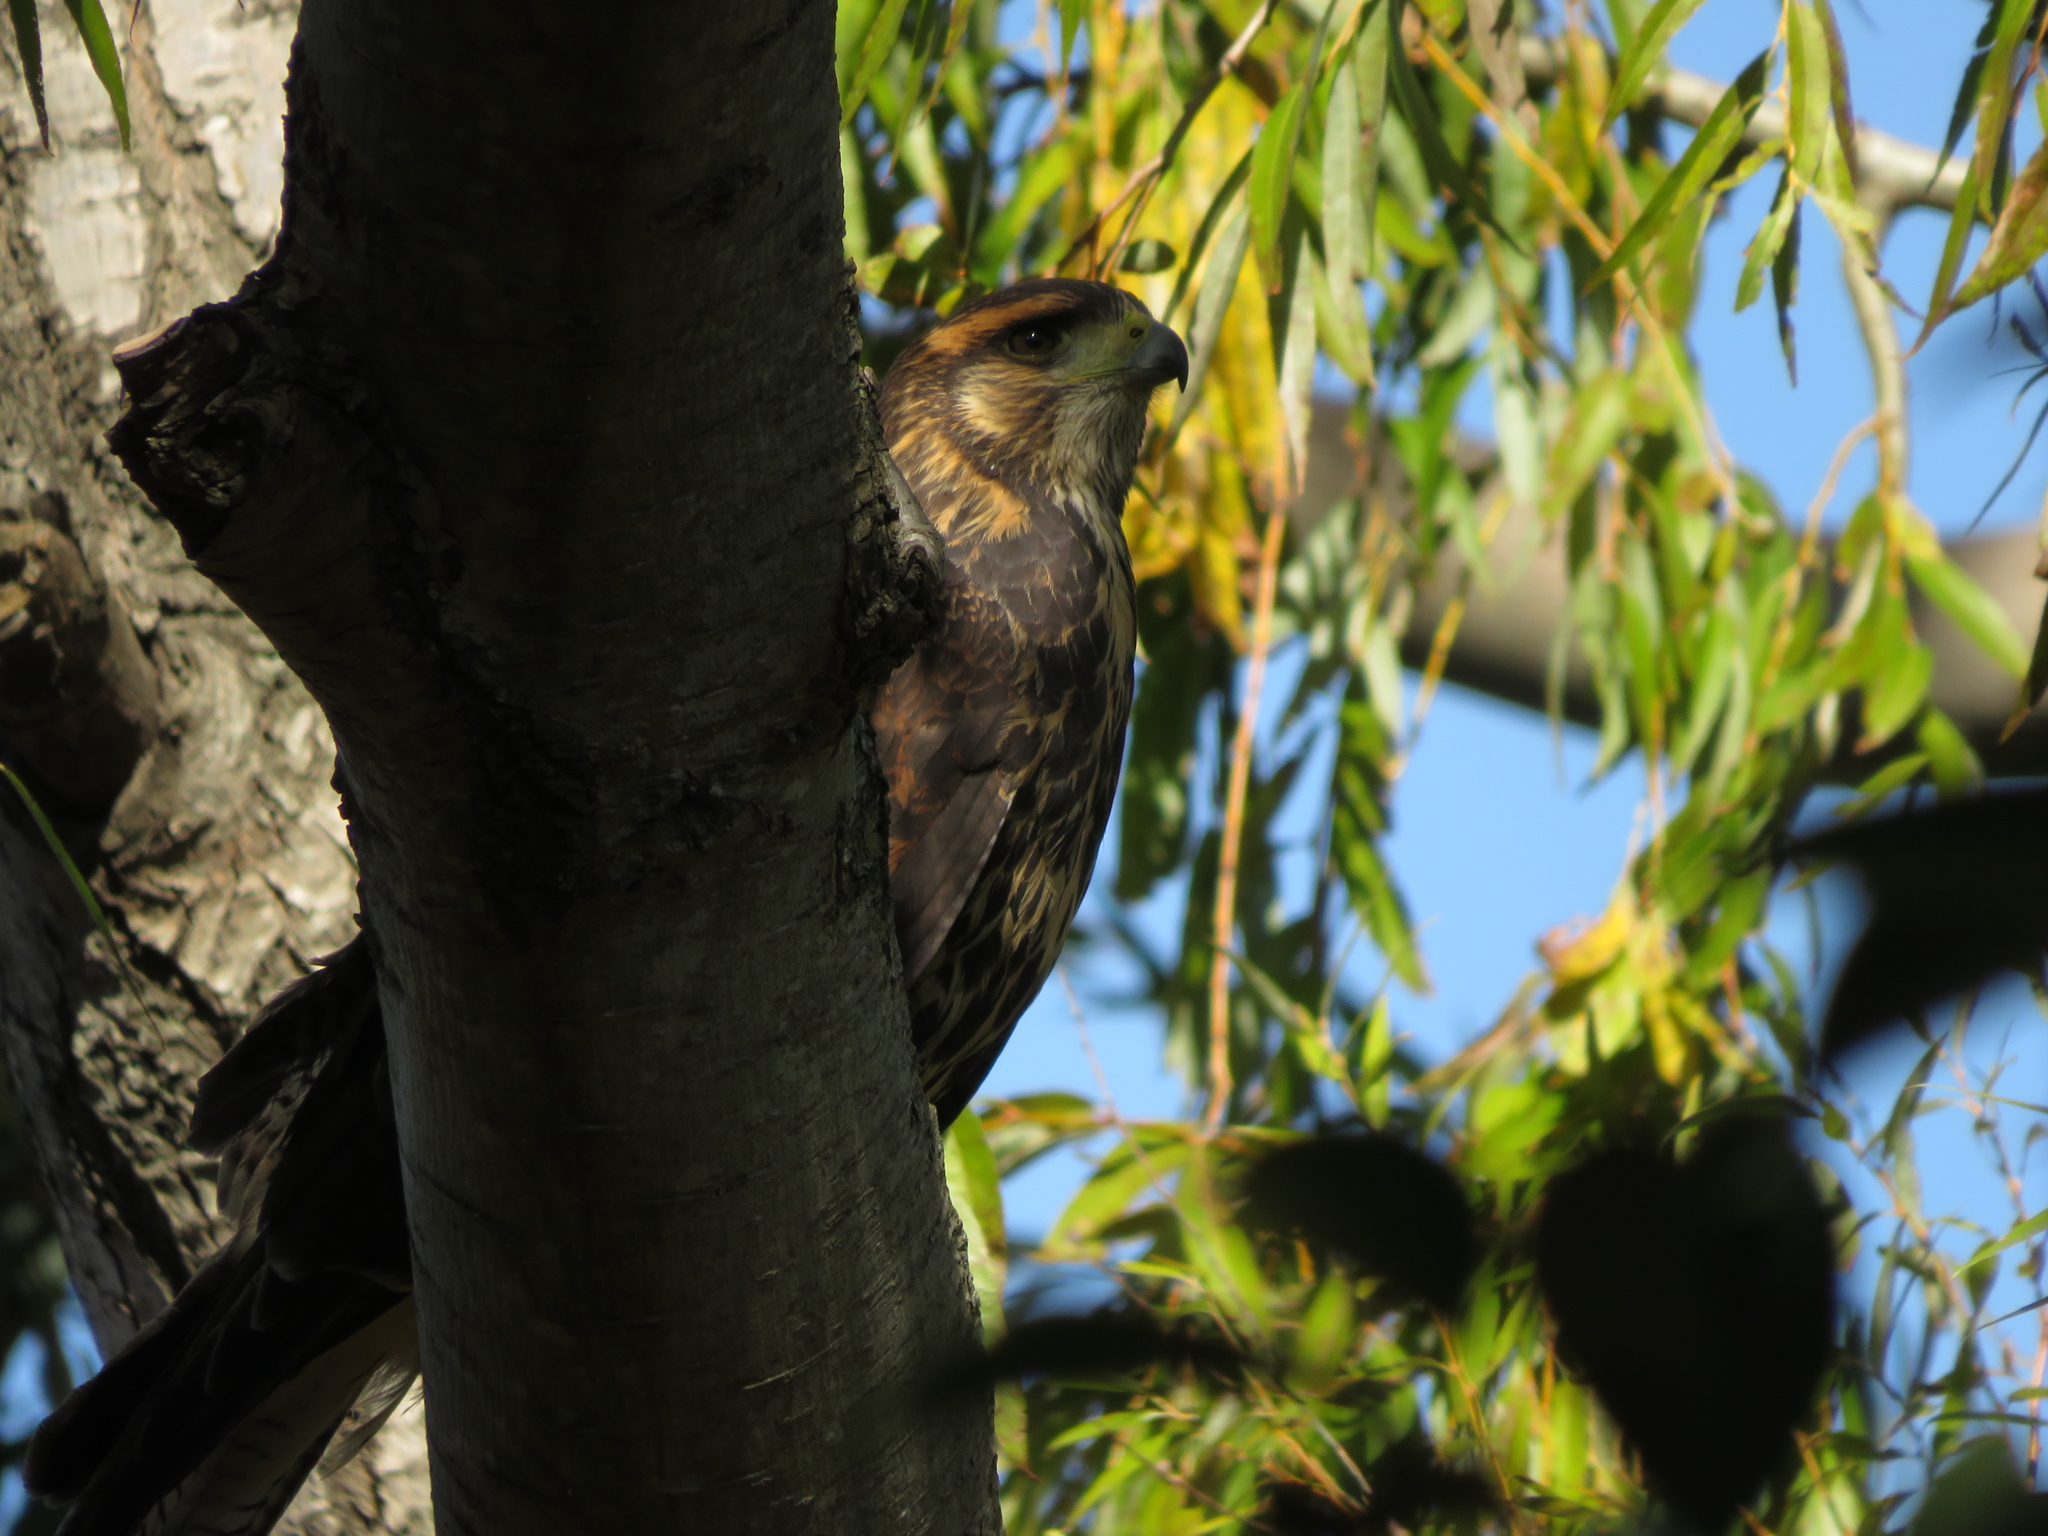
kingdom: Animalia
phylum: Chordata
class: Aves
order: Accipitriformes
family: Accipitridae
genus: Parabuteo
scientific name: Parabuteo unicinctus
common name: Harris's hawk
